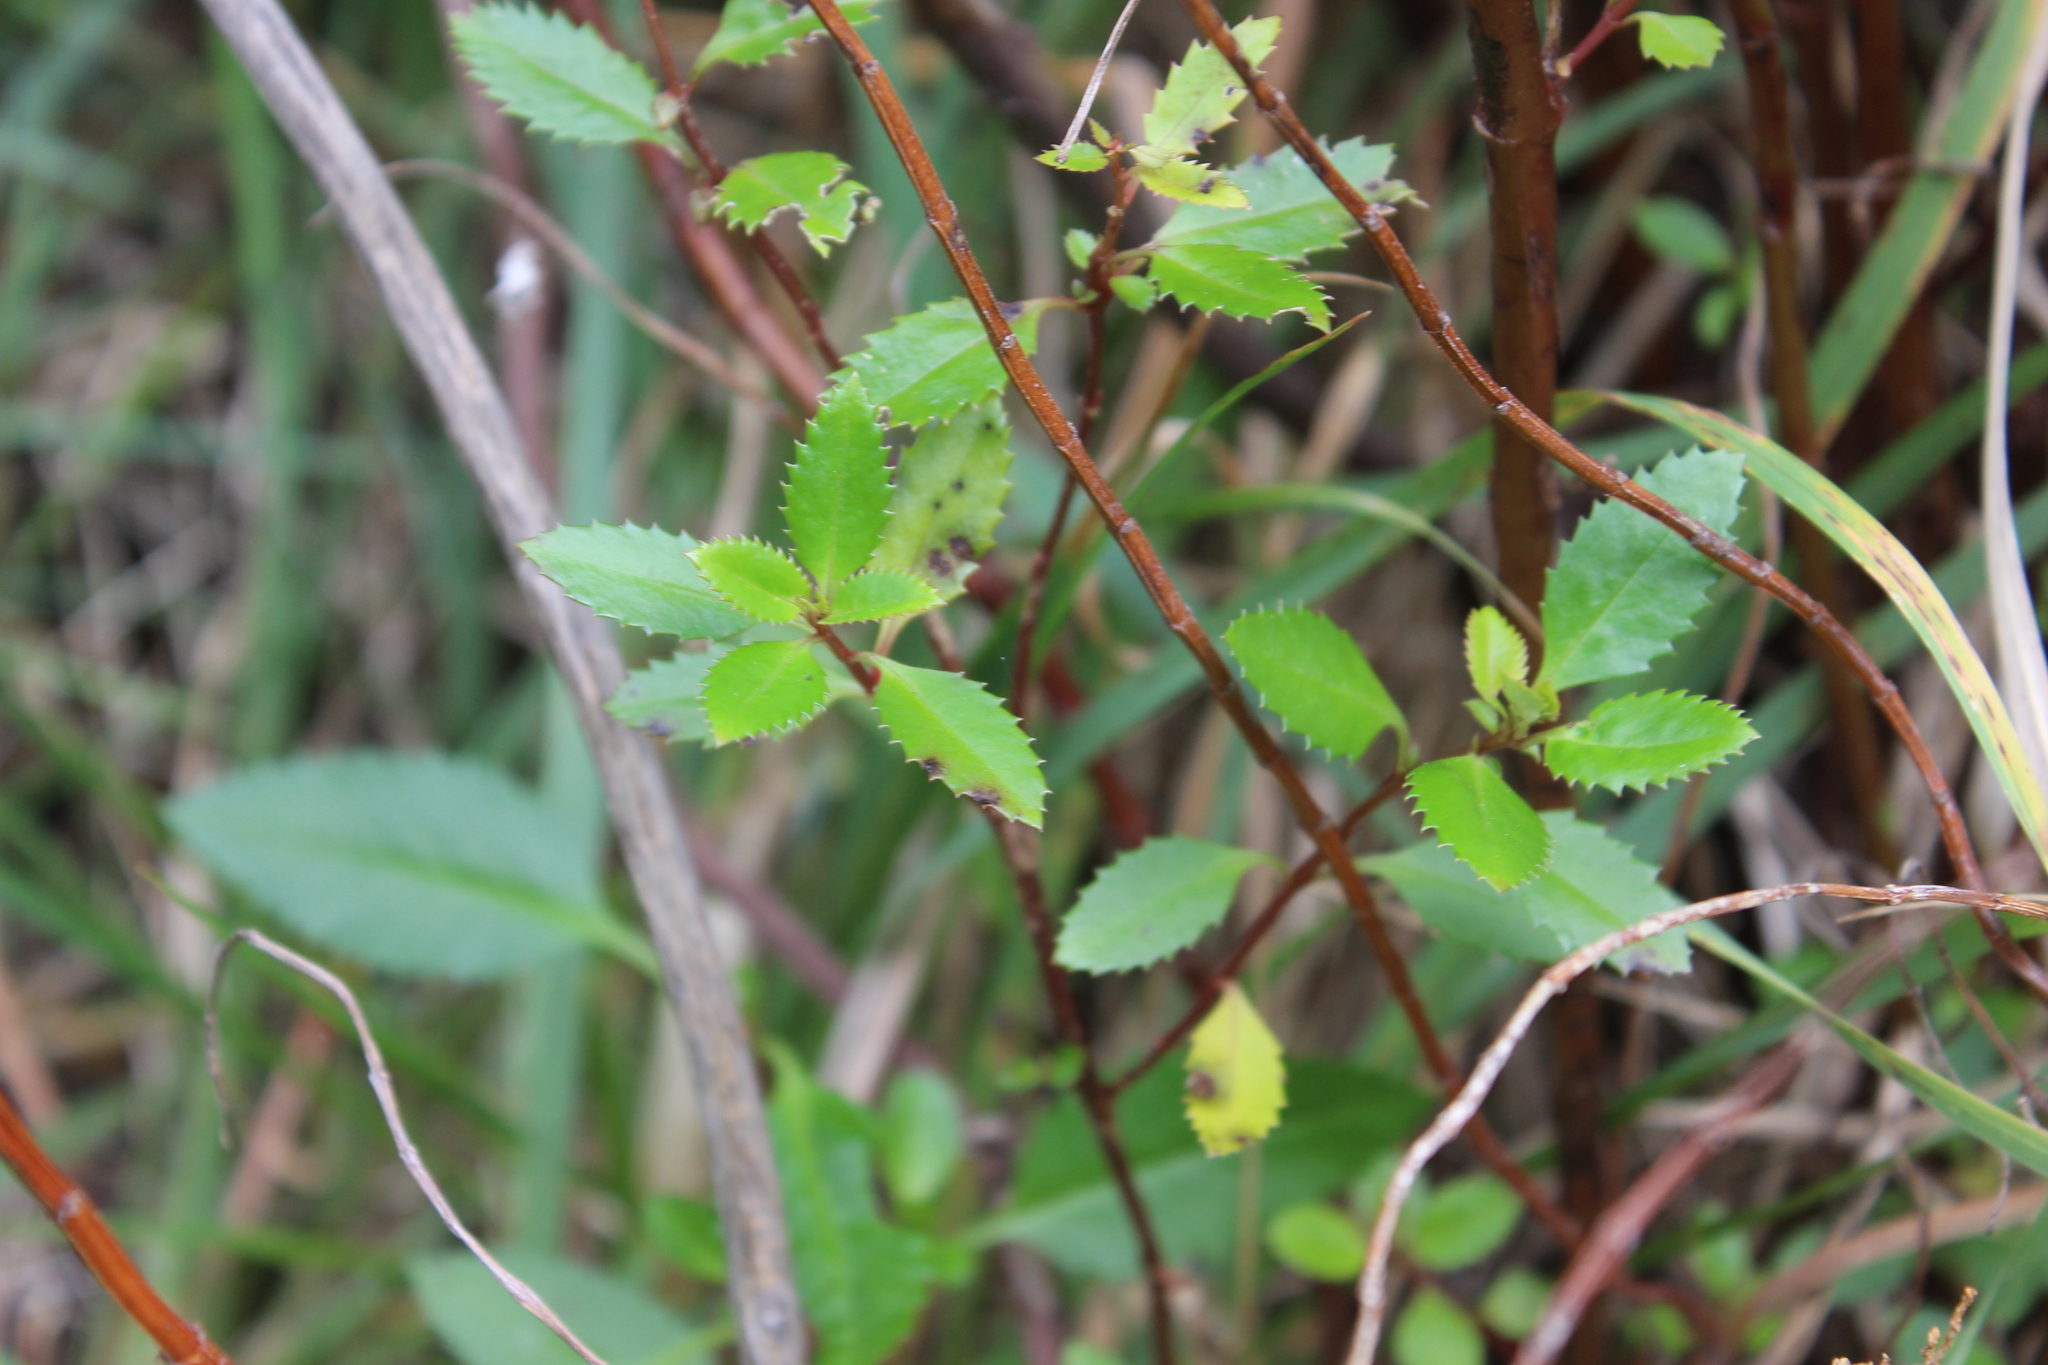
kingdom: Plantae
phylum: Tracheophyta
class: Magnoliopsida
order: Saxifragales
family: Haloragaceae
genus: Haloragis
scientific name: Haloragis erecta
